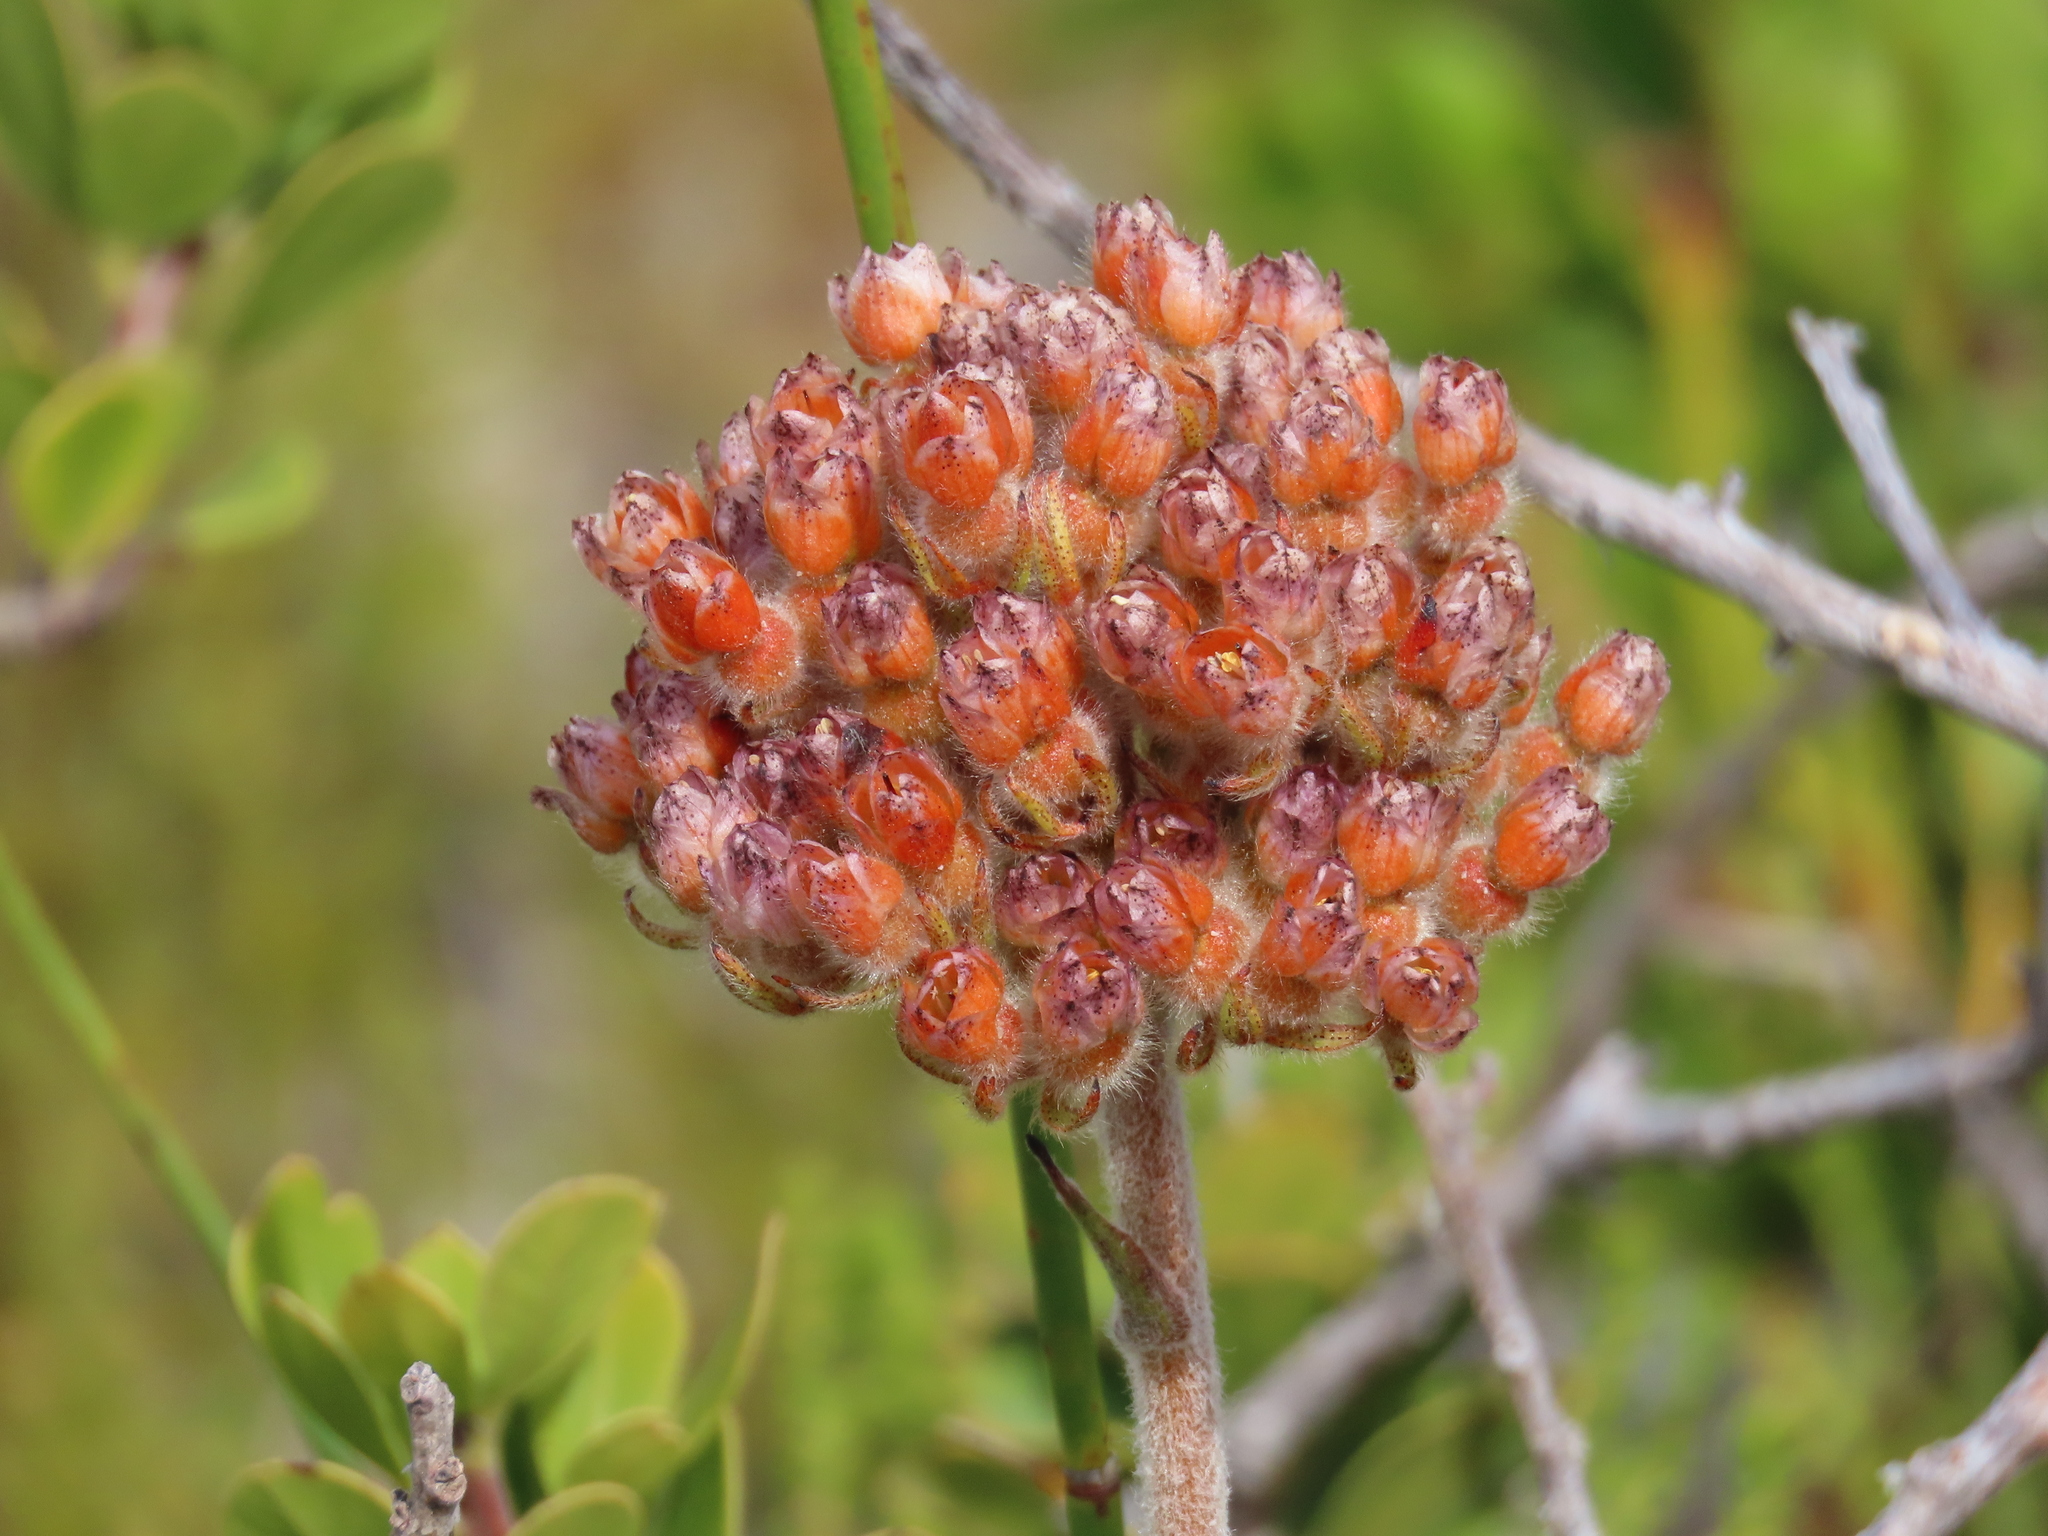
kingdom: Plantae
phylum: Tracheophyta
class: Liliopsida
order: Commelinales
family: Haemodoraceae
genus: Dilatris
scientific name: Dilatris pillansii
